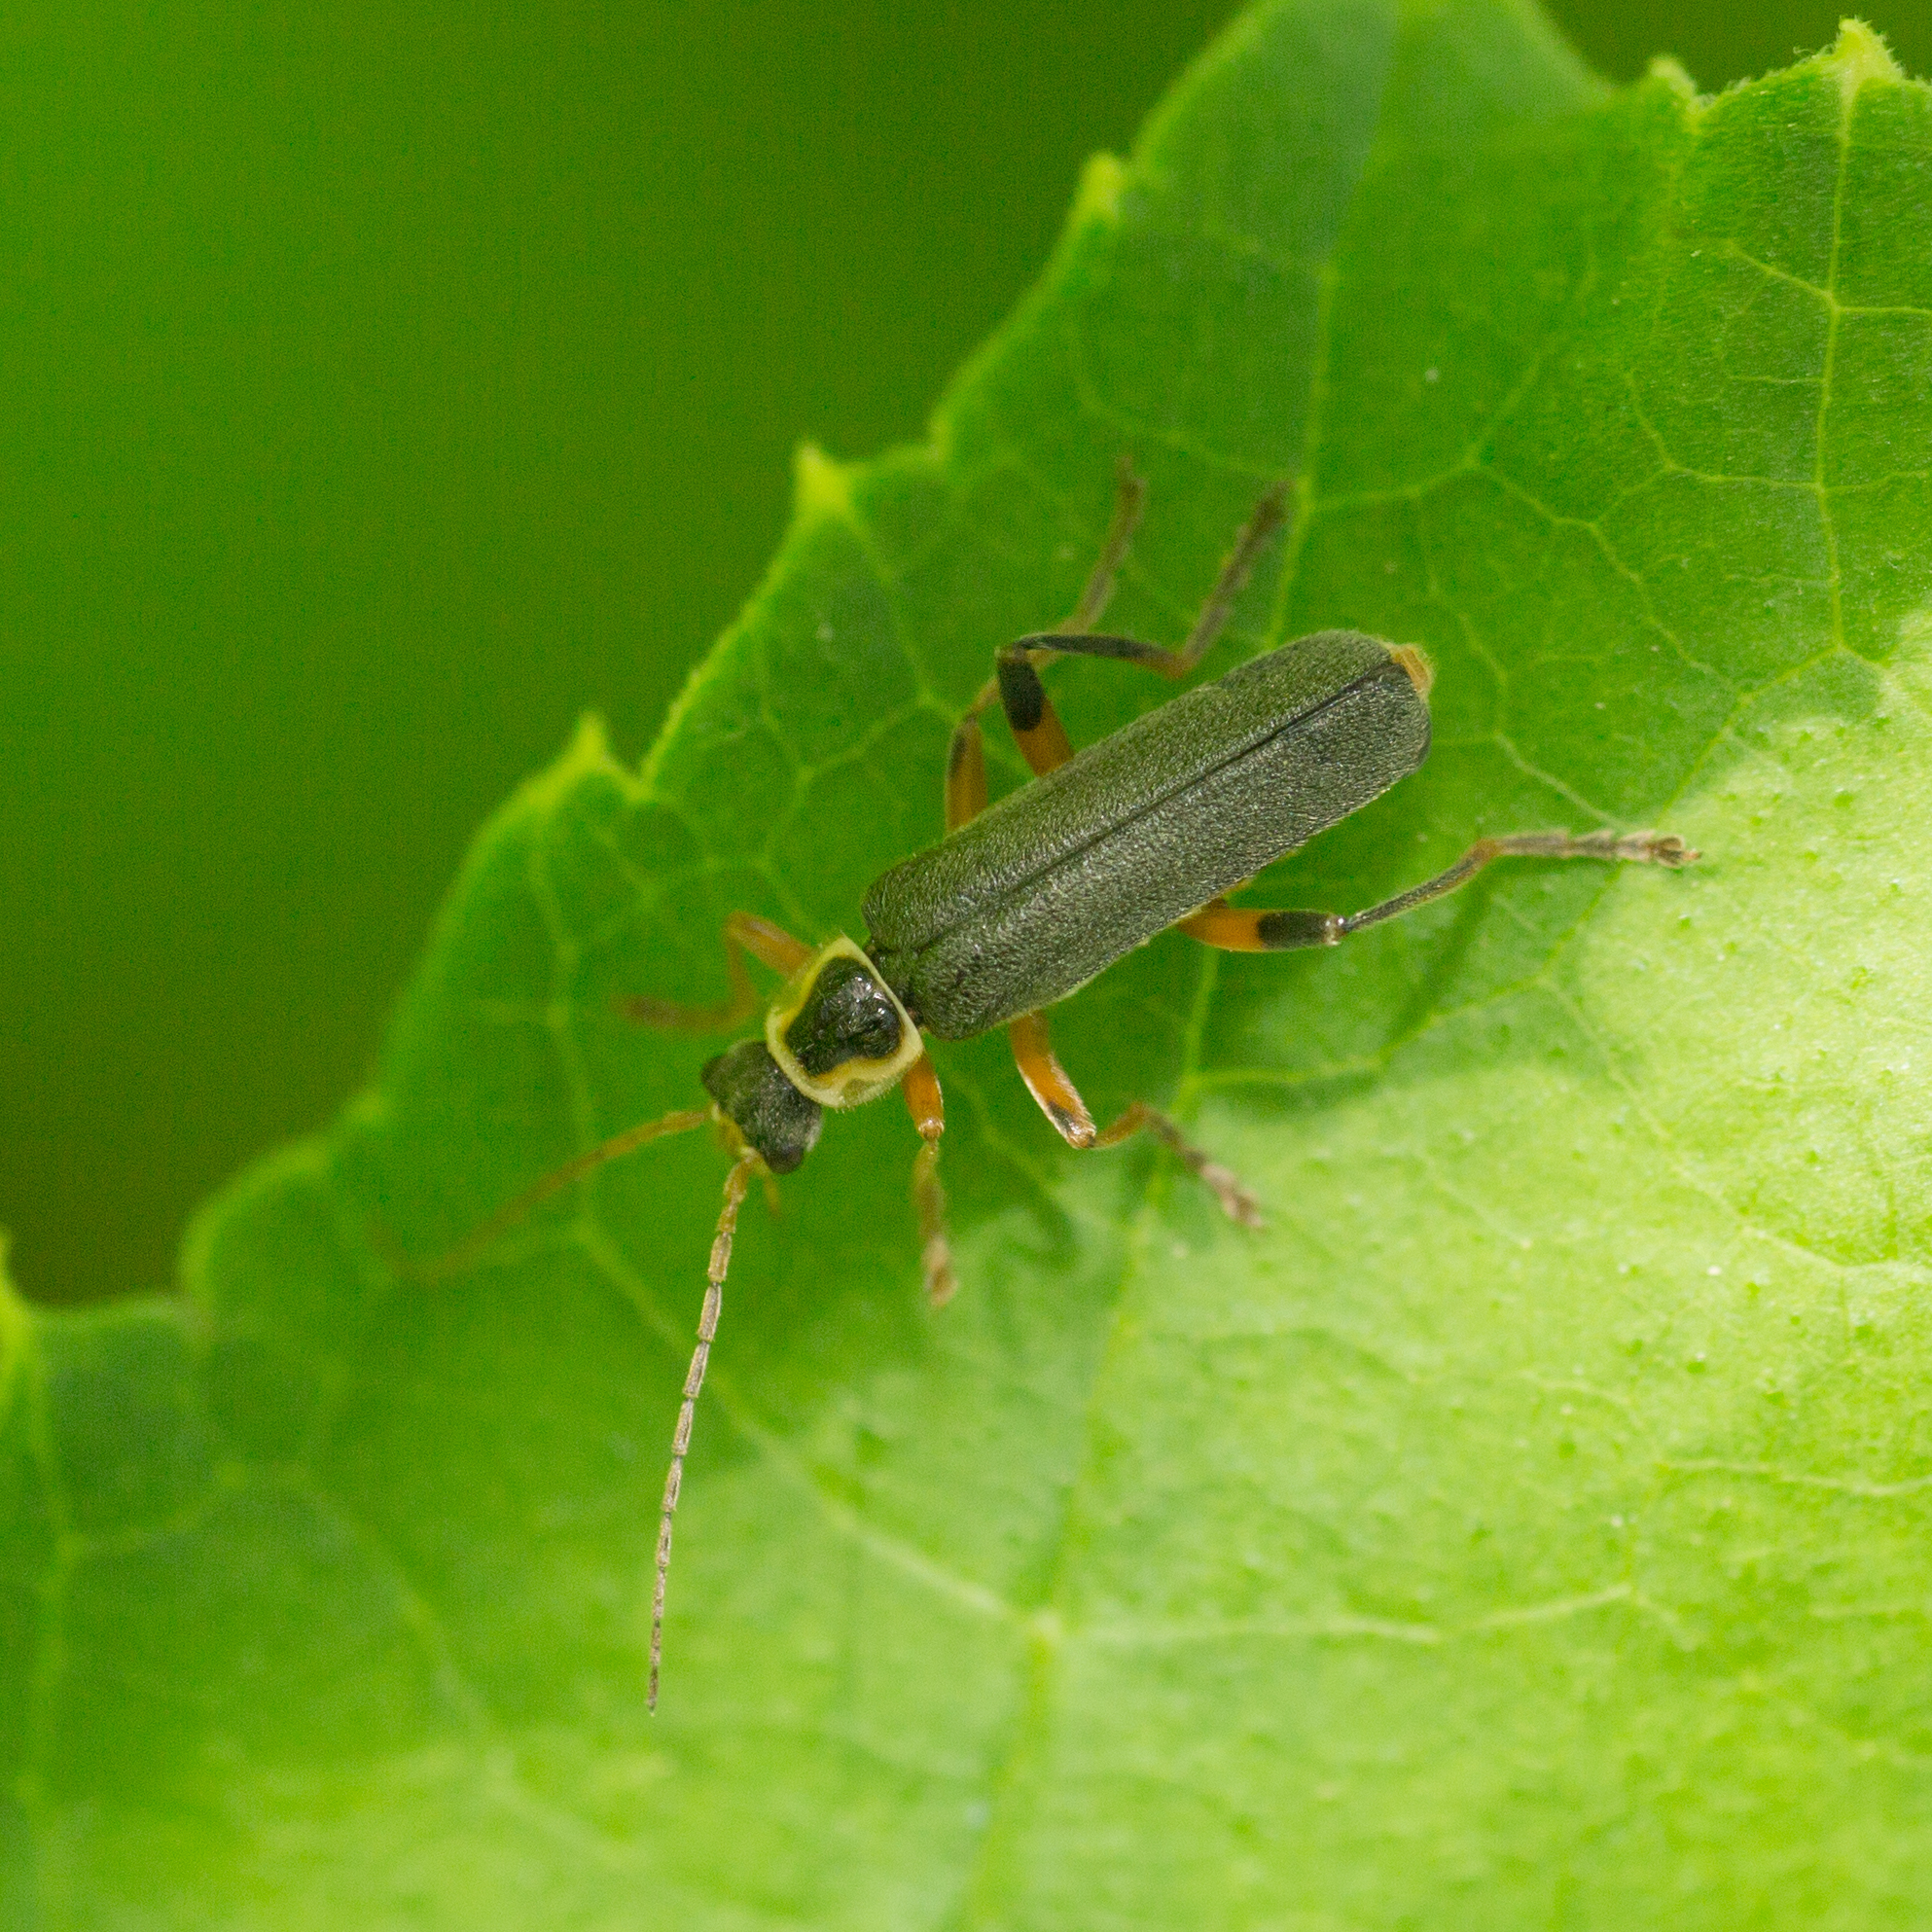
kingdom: Animalia
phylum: Arthropoda
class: Insecta
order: Coleoptera
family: Cantharidae
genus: Cantharis
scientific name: Cantharis nigricans
